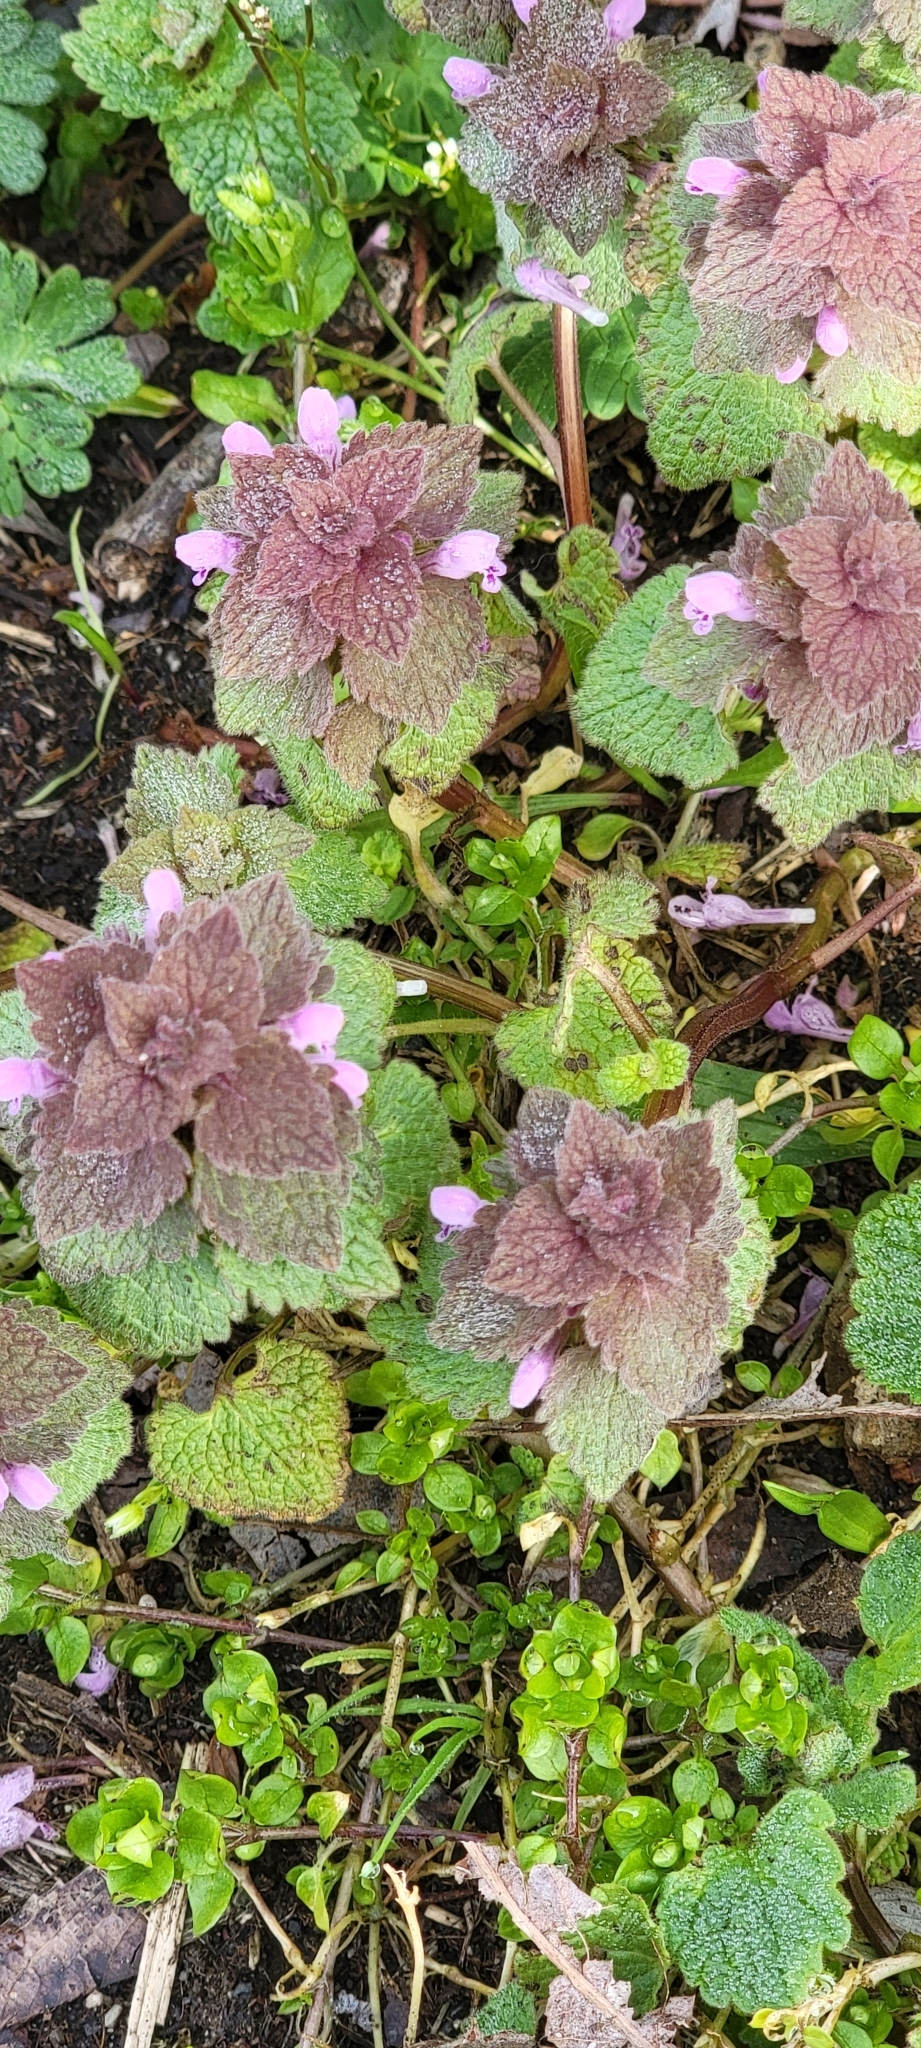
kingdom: Plantae
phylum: Tracheophyta
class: Magnoliopsida
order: Lamiales
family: Lamiaceae
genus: Lamium
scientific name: Lamium purpureum
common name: Red dead-nettle
